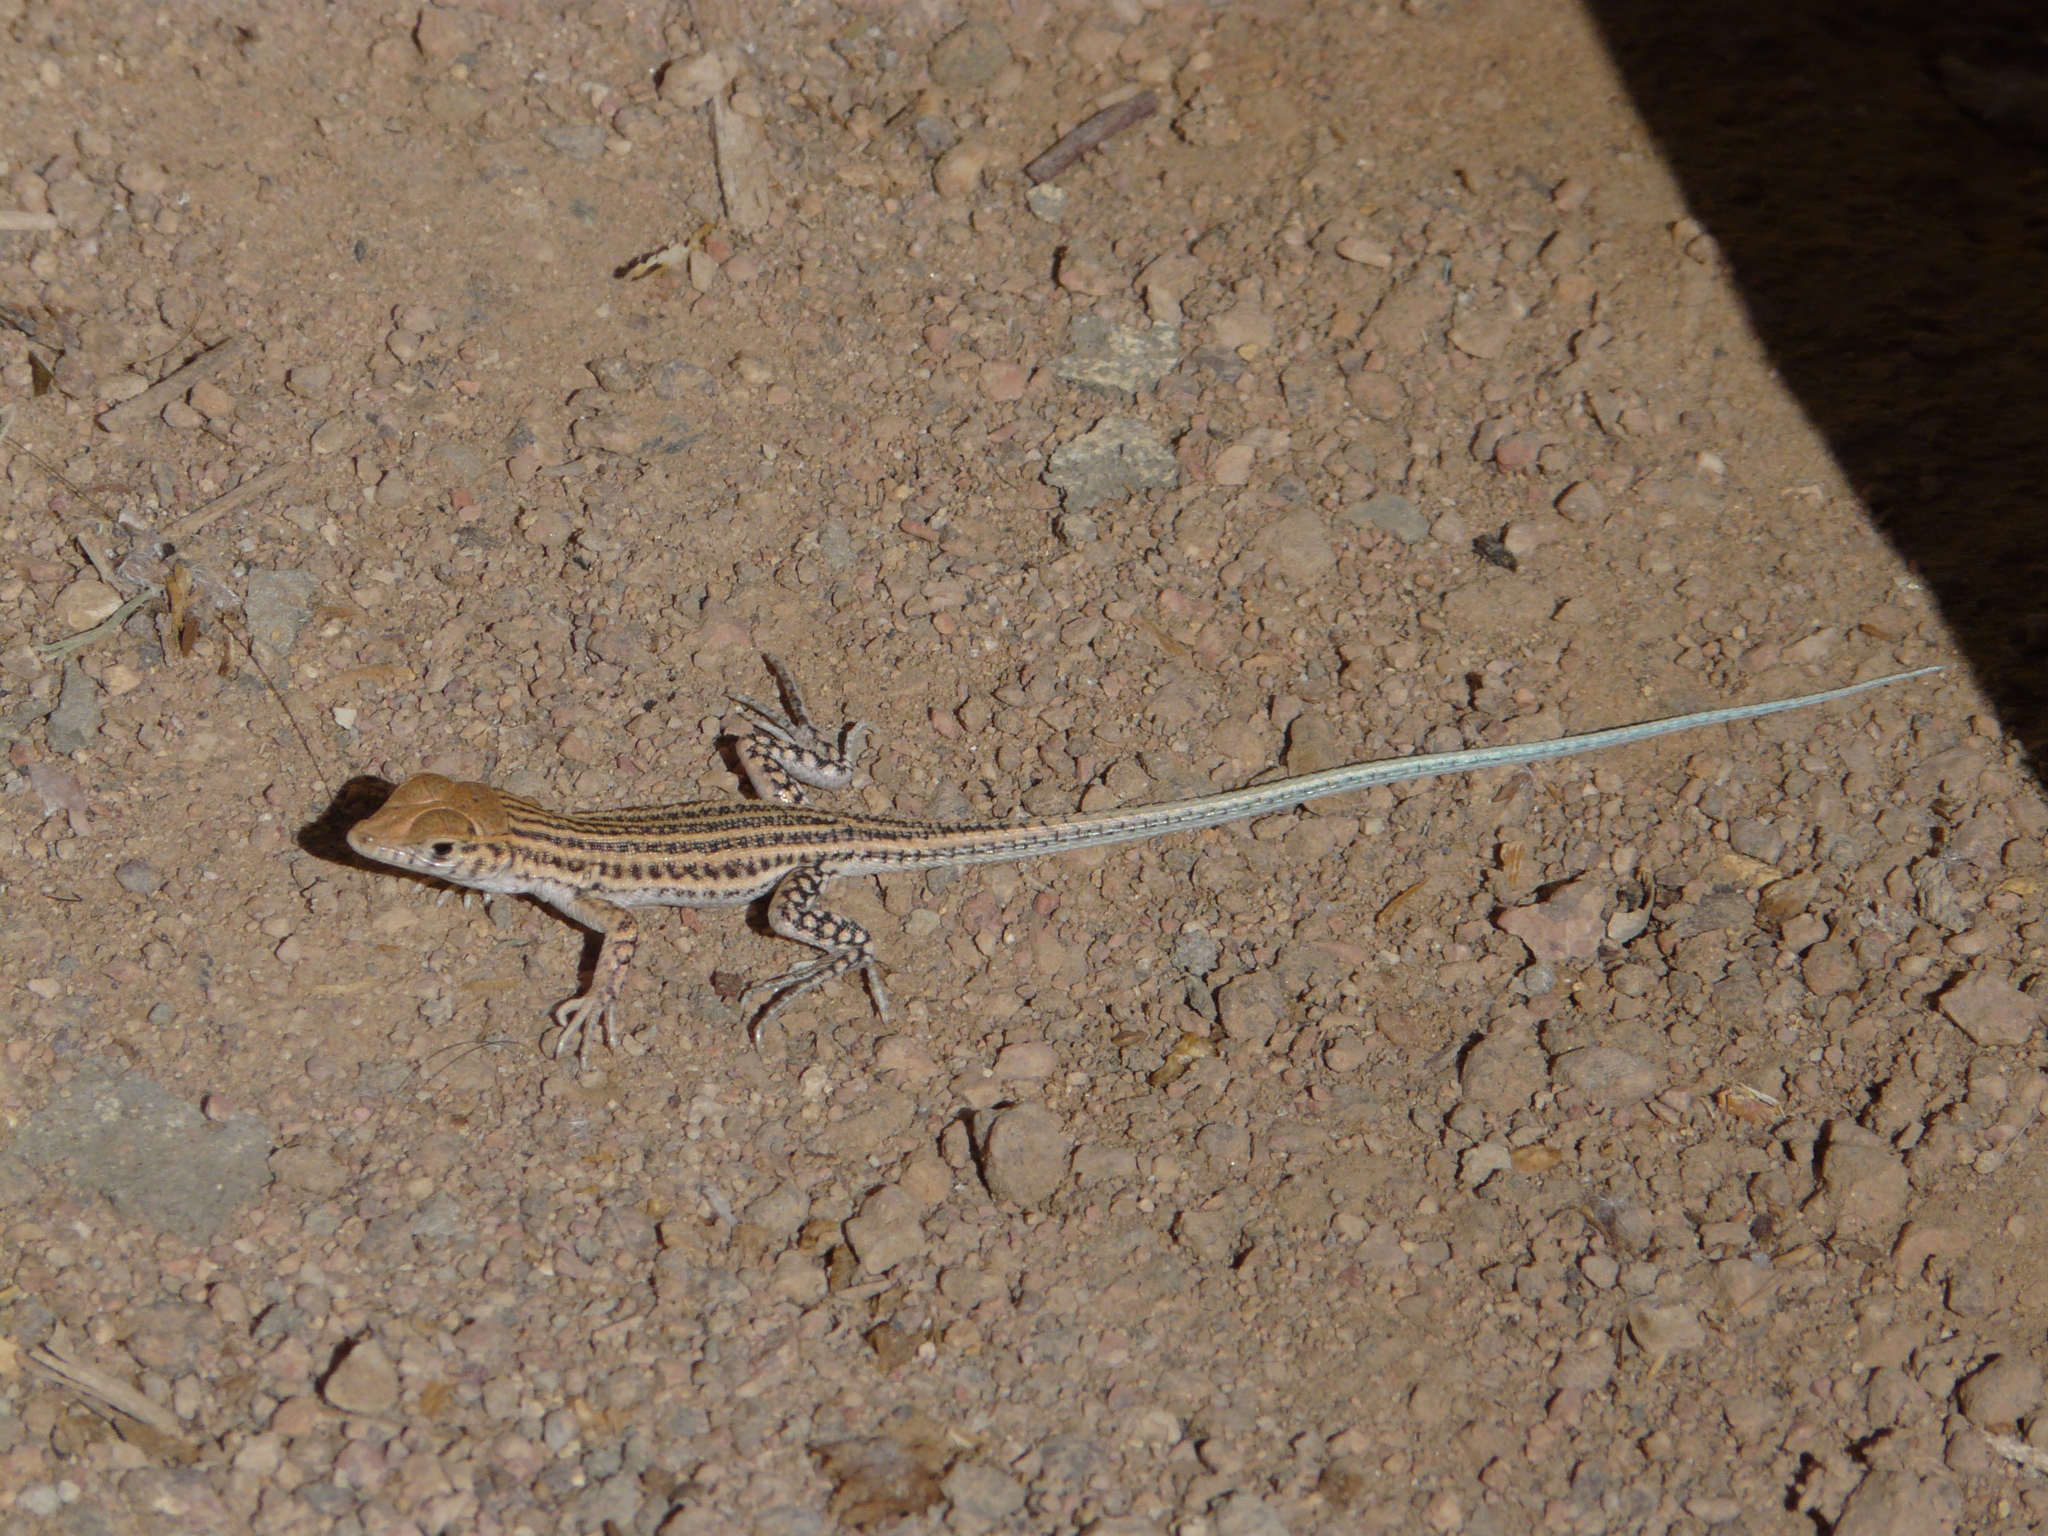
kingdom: Animalia
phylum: Chordata
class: Squamata
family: Lacertidae
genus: Acanthodactylus
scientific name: Acanthodactylus boskianus
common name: Bosc’s fringe-toed lizard
